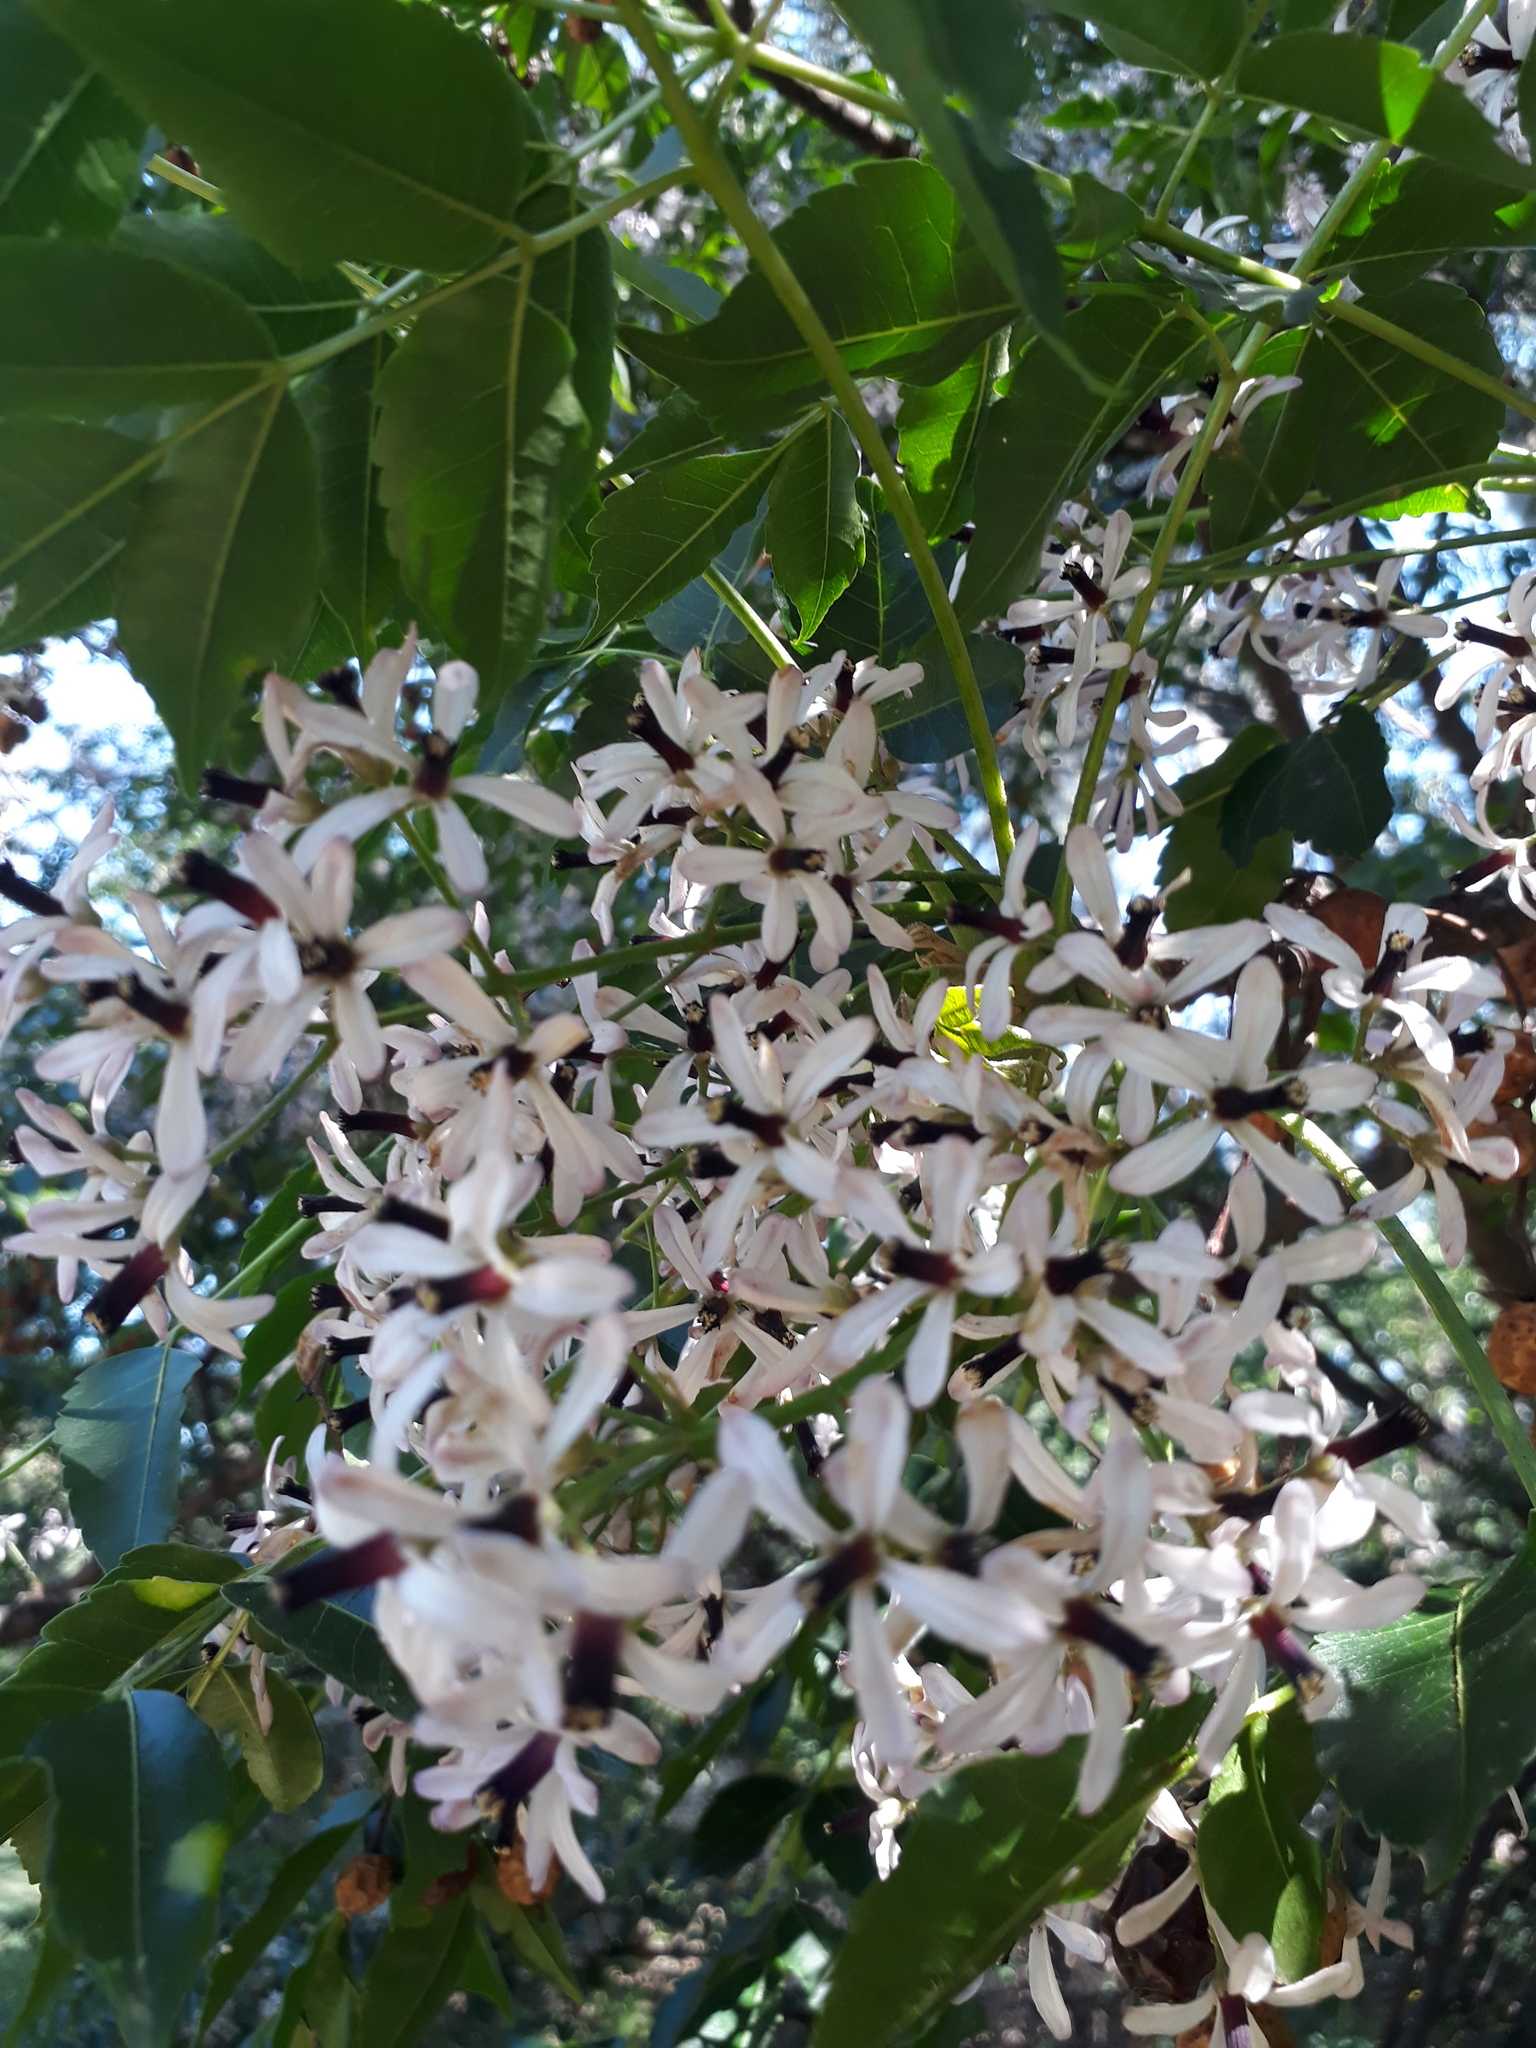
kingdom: Plantae
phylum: Tracheophyta
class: Magnoliopsida
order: Sapindales
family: Meliaceae
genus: Melia
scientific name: Melia azedarach
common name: Chinaberrytree
